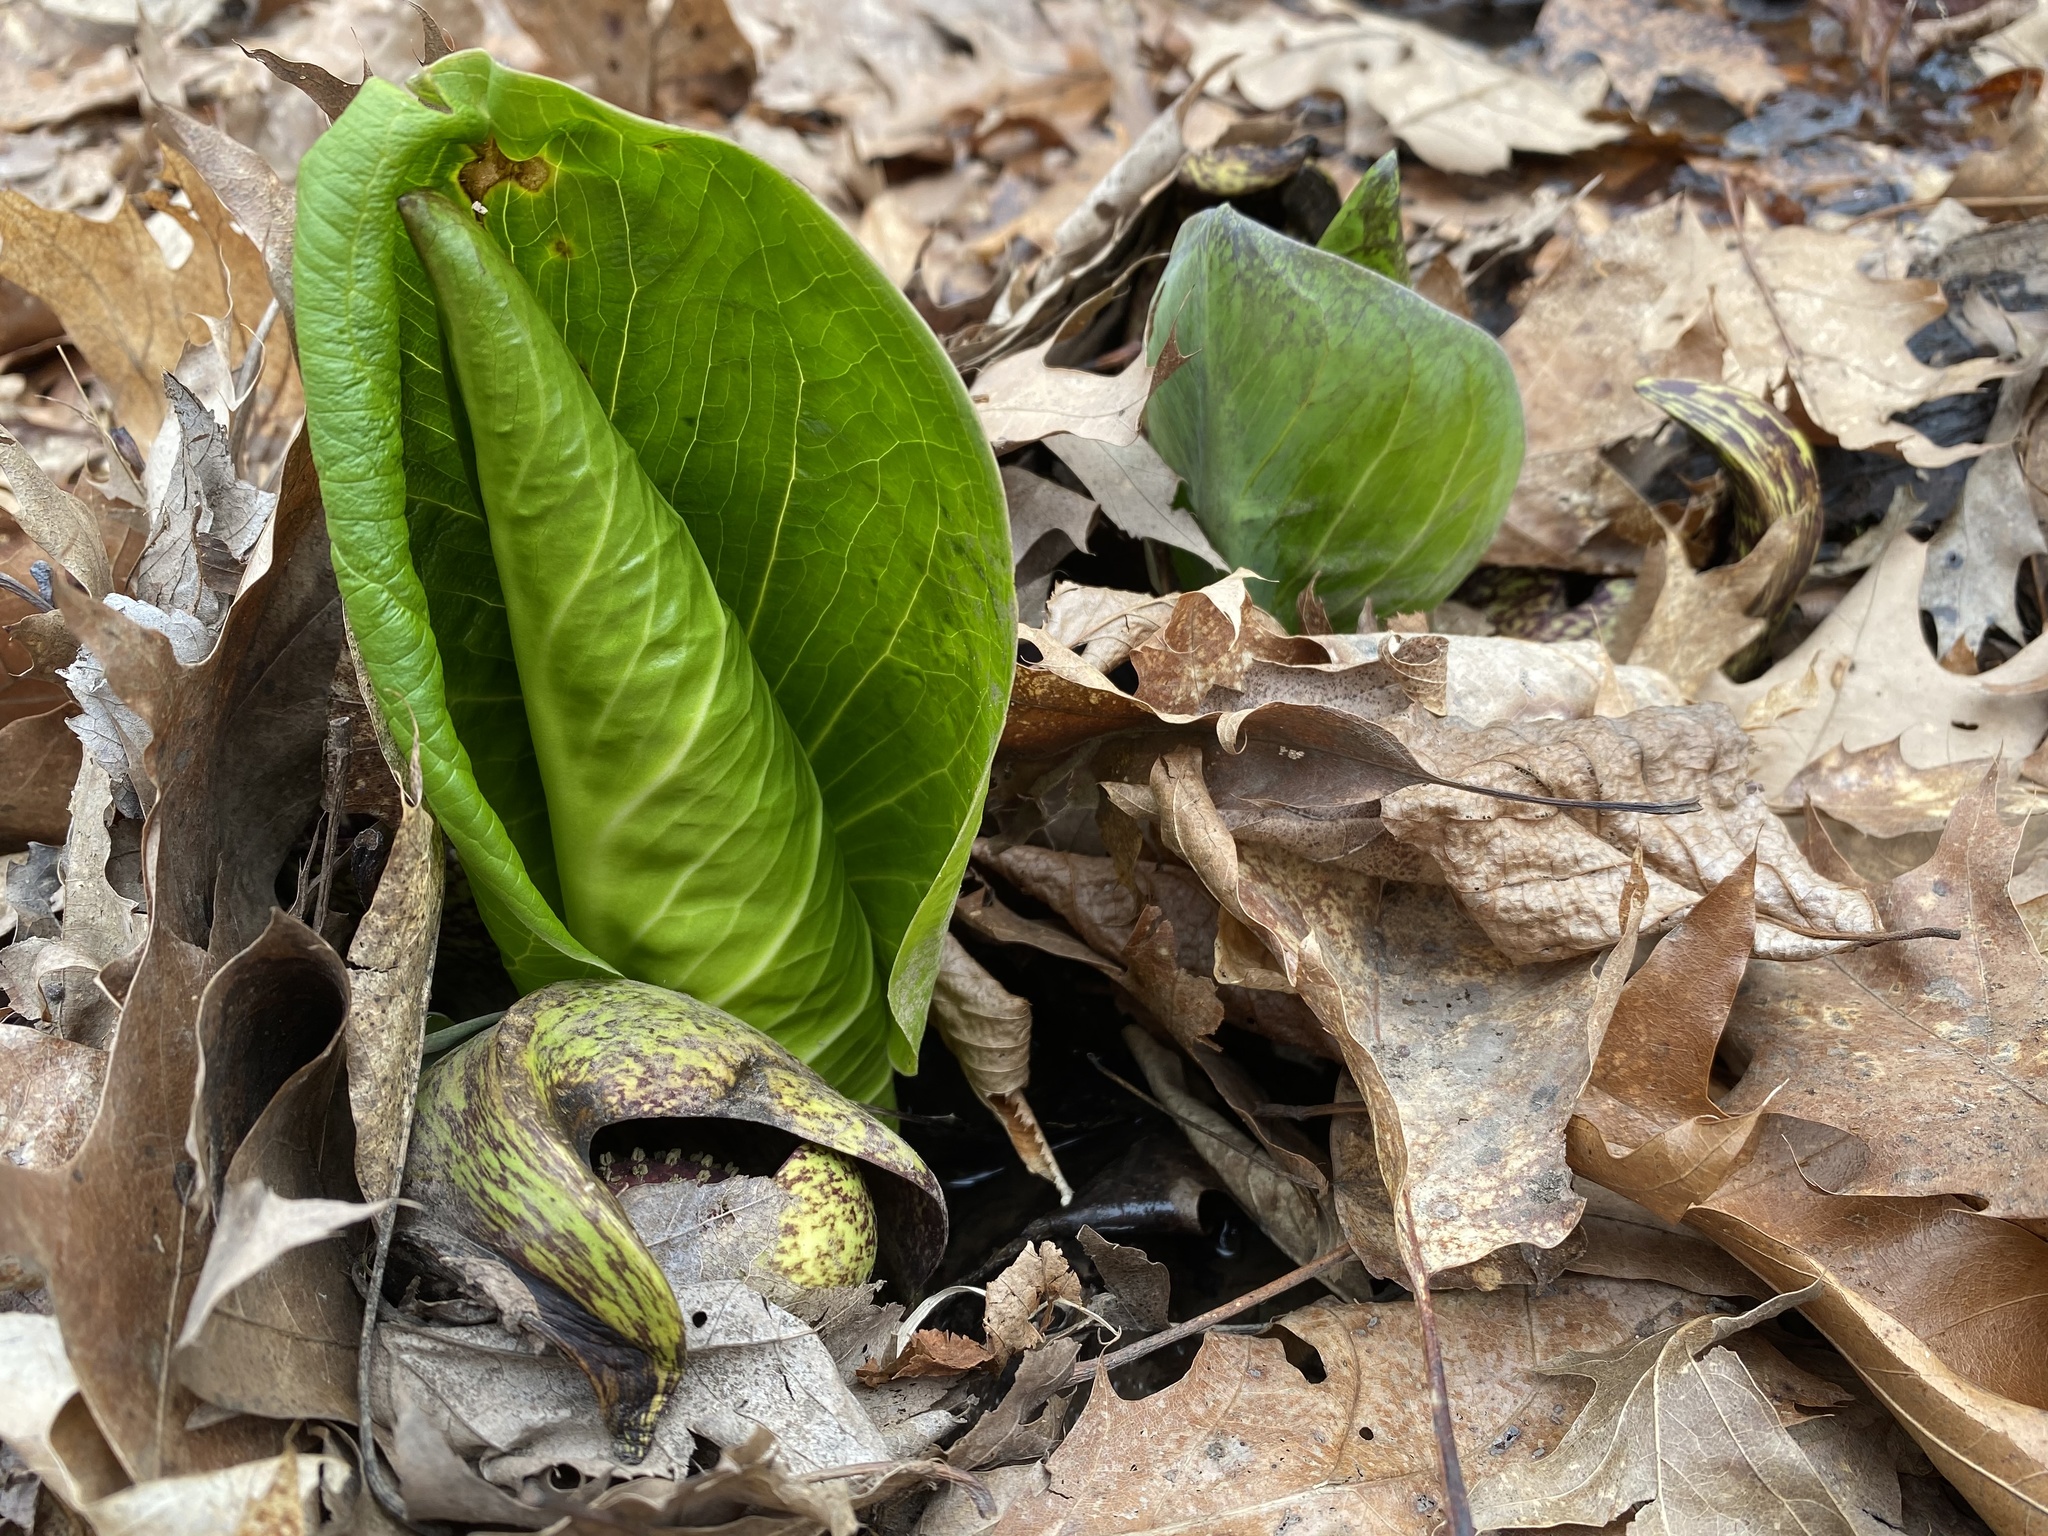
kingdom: Plantae
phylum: Tracheophyta
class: Liliopsida
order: Alismatales
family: Araceae
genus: Symplocarpus
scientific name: Symplocarpus foetidus
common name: Eastern skunk cabbage
